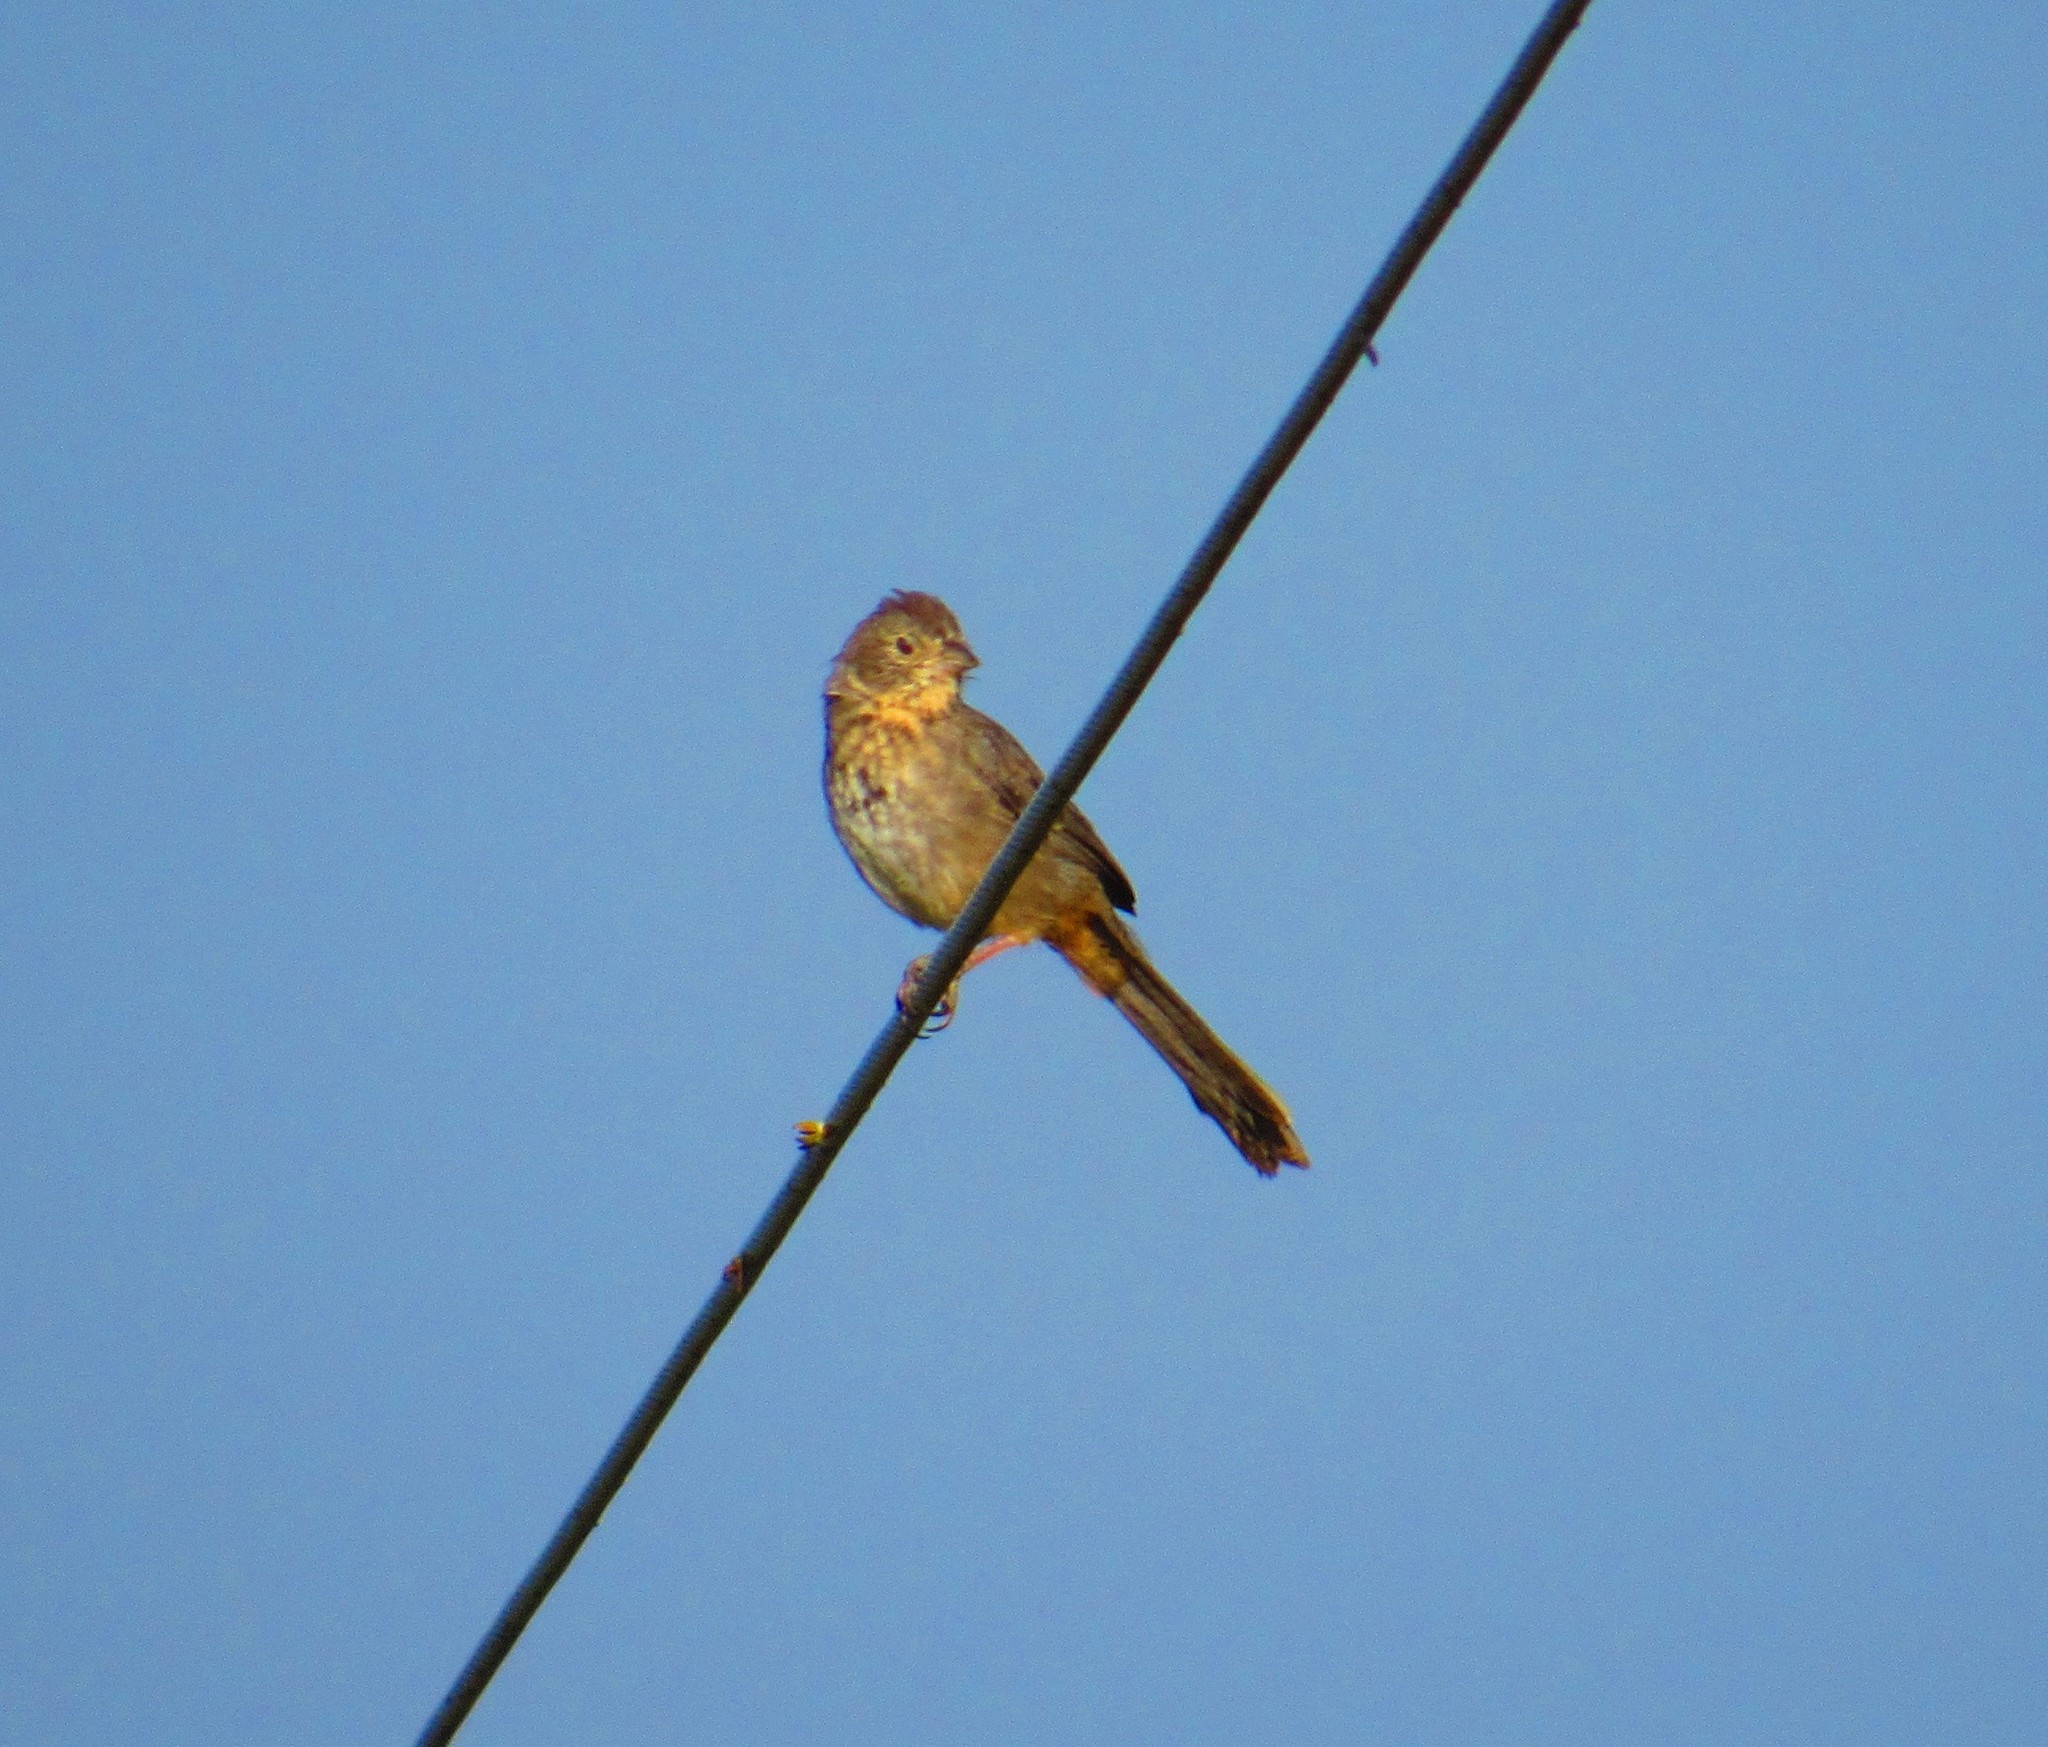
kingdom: Animalia
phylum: Chordata
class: Aves
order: Passeriformes
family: Passerellidae
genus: Melozone
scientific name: Melozone fusca
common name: Canyon towhee
